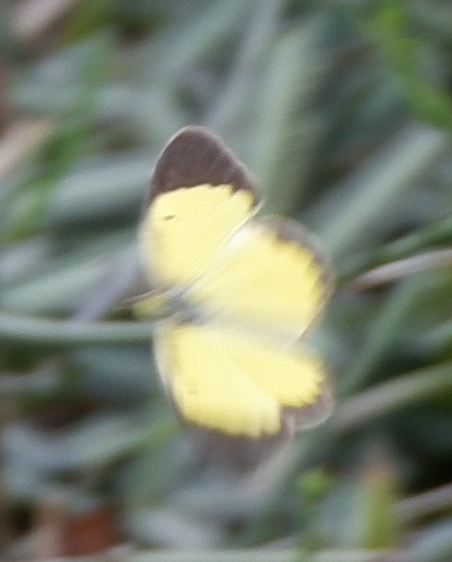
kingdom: Animalia
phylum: Arthropoda
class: Insecta
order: Lepidoptera
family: Pieridae
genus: Pyrisitia
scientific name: Pyrisitia lisa
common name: Little yellow
